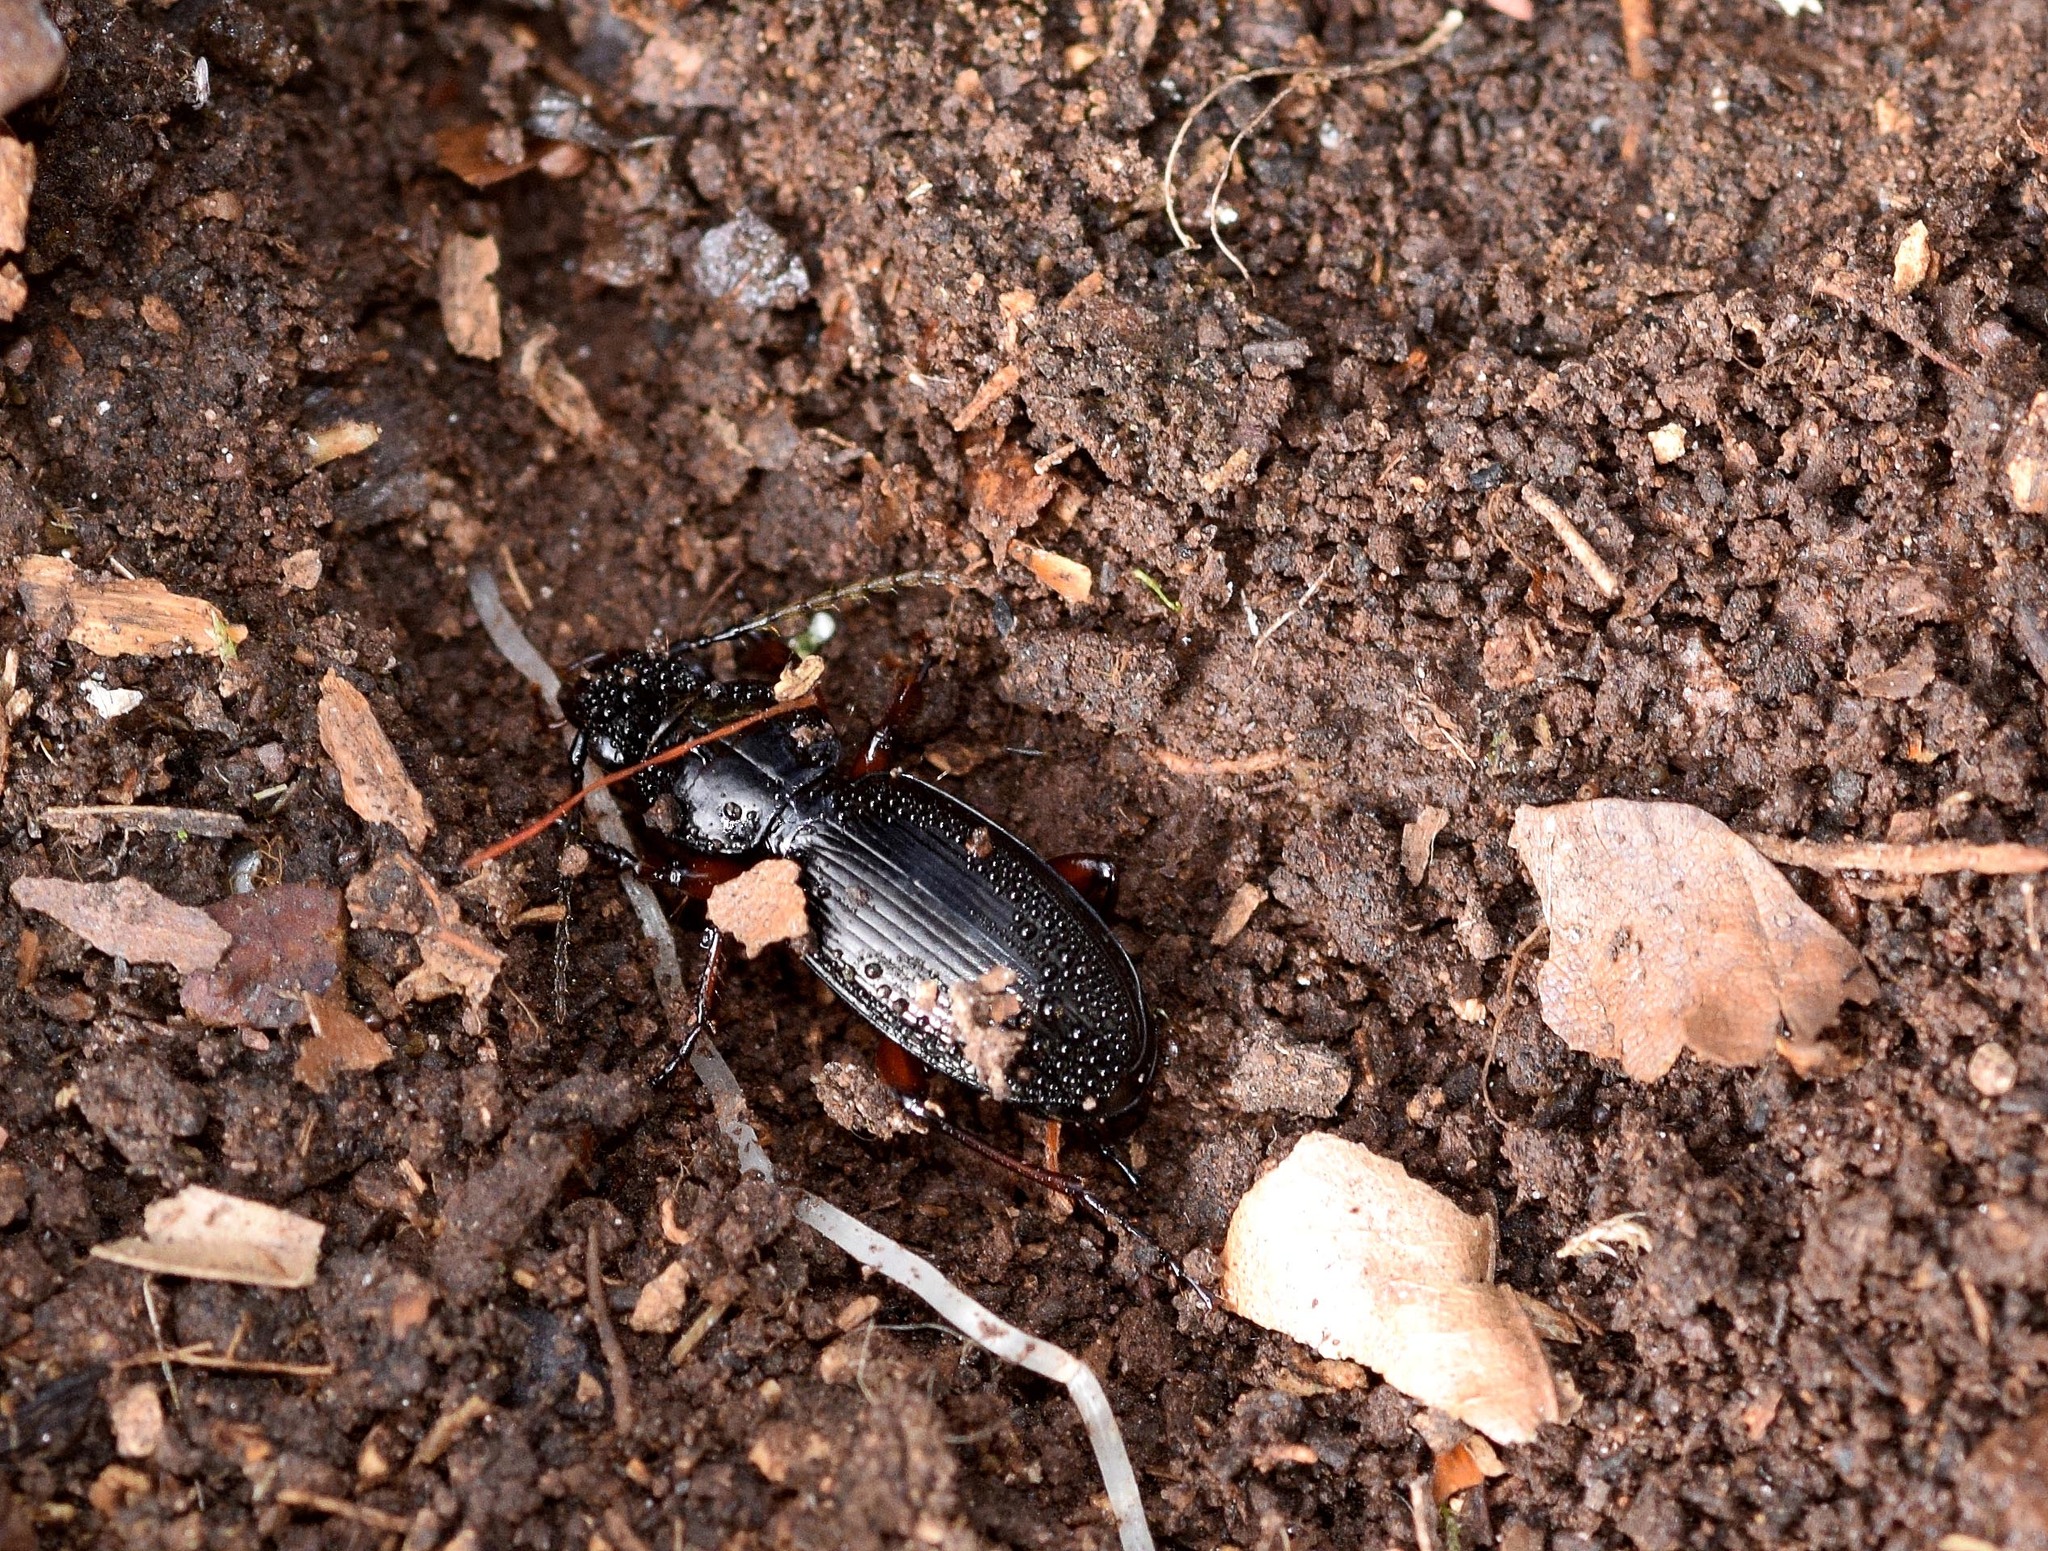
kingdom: Animalia
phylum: Arthropoda
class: Insecta
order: Coleoptera
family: Carabidae
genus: Pterostichus
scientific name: Pterostichus madidus
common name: Black clock
